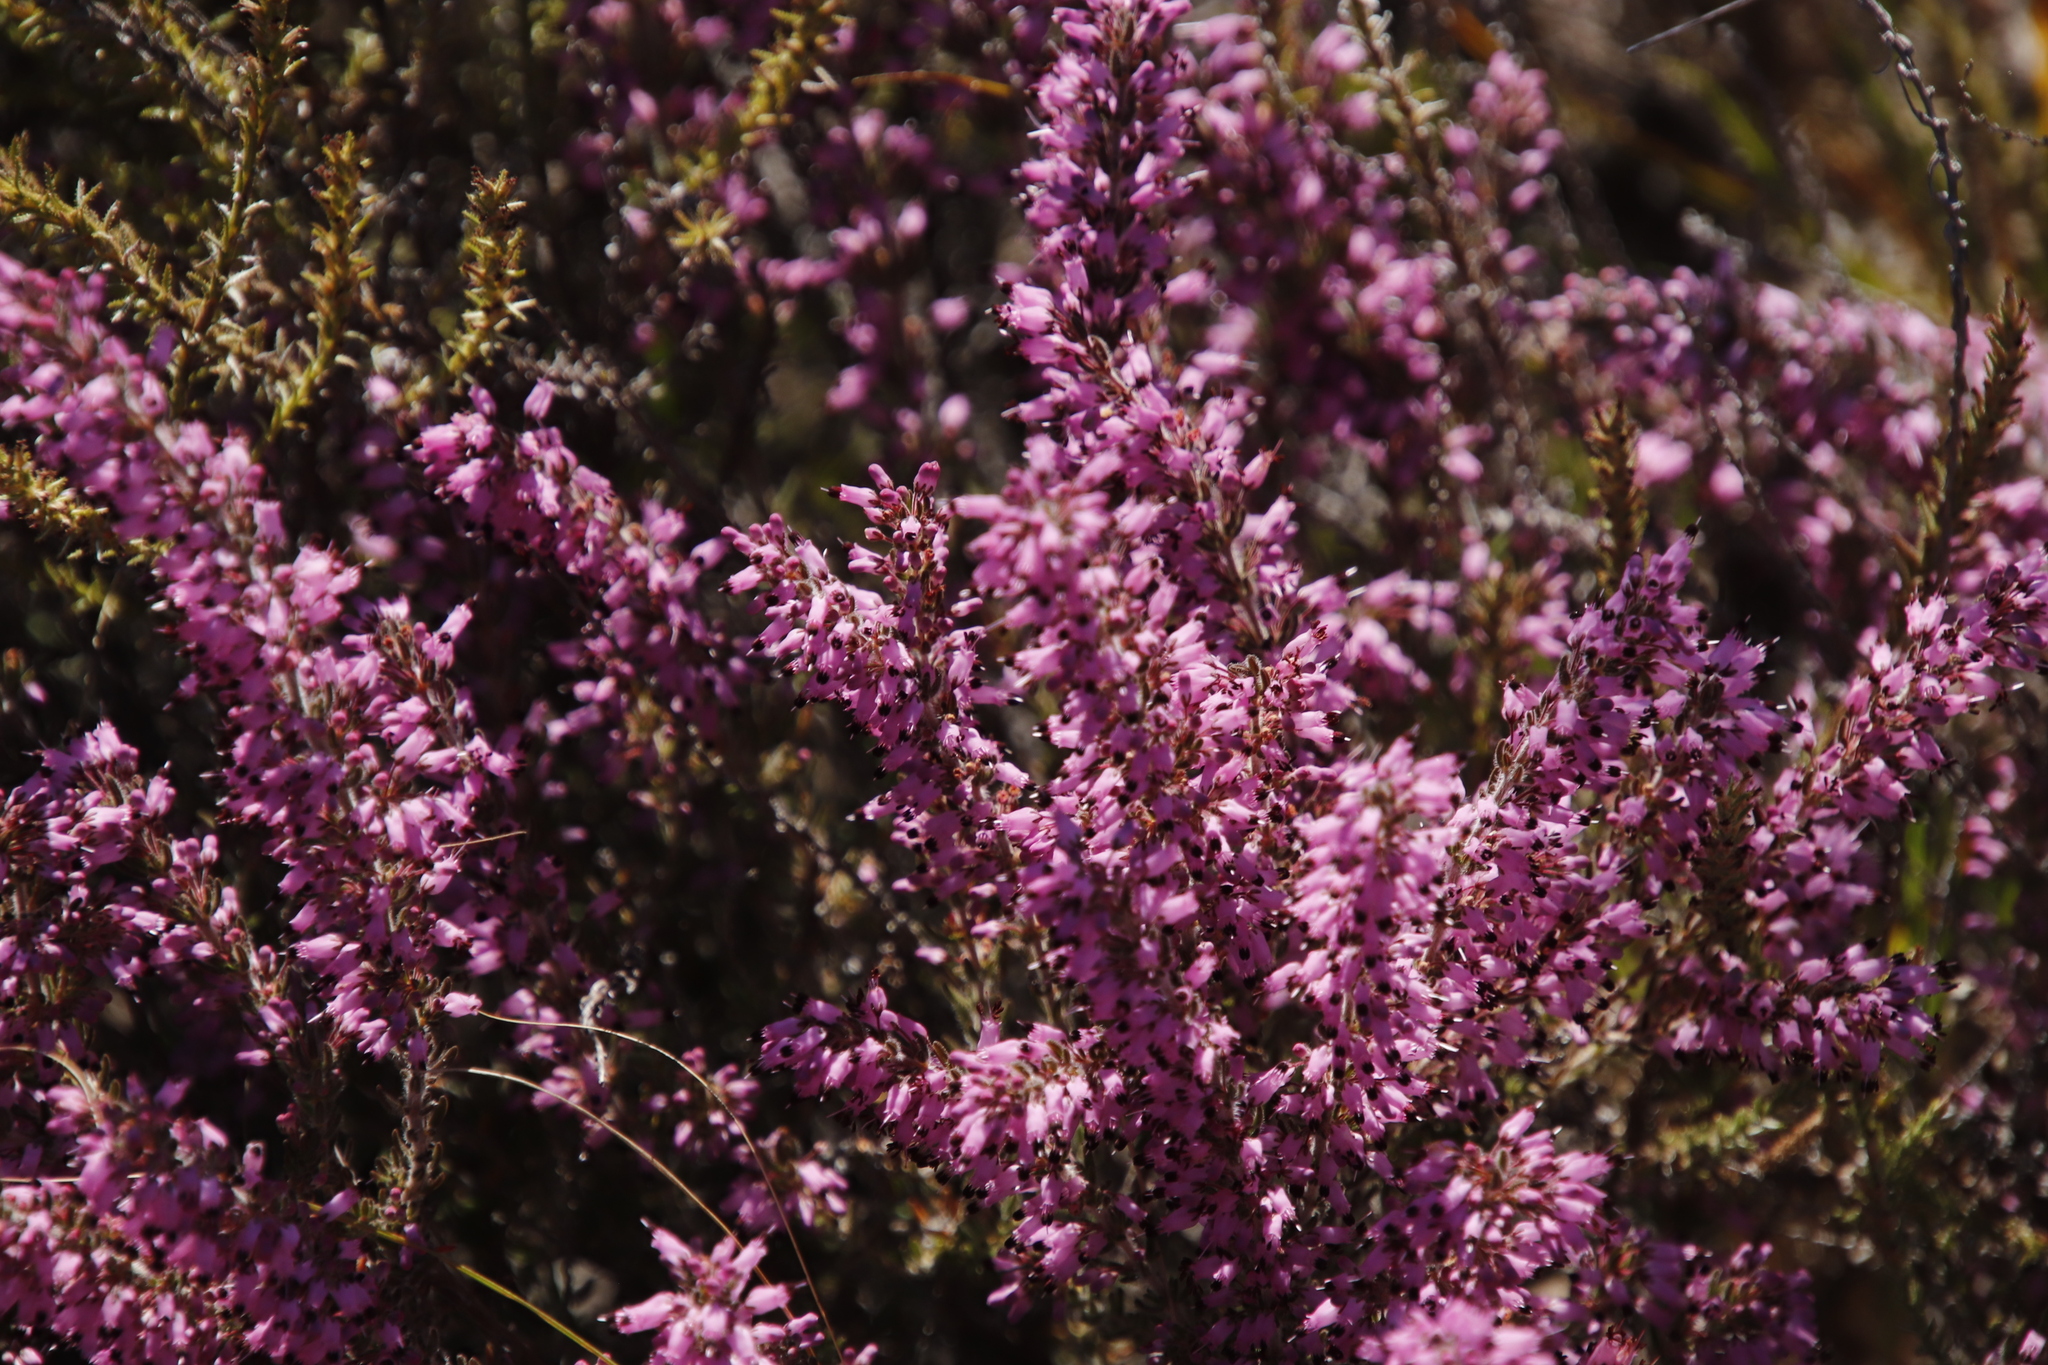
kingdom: Plantae
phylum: Tracheophyta
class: Magnoliopsida
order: Ericales
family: Ericaceae
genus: Erica
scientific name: Erica nudiflora
